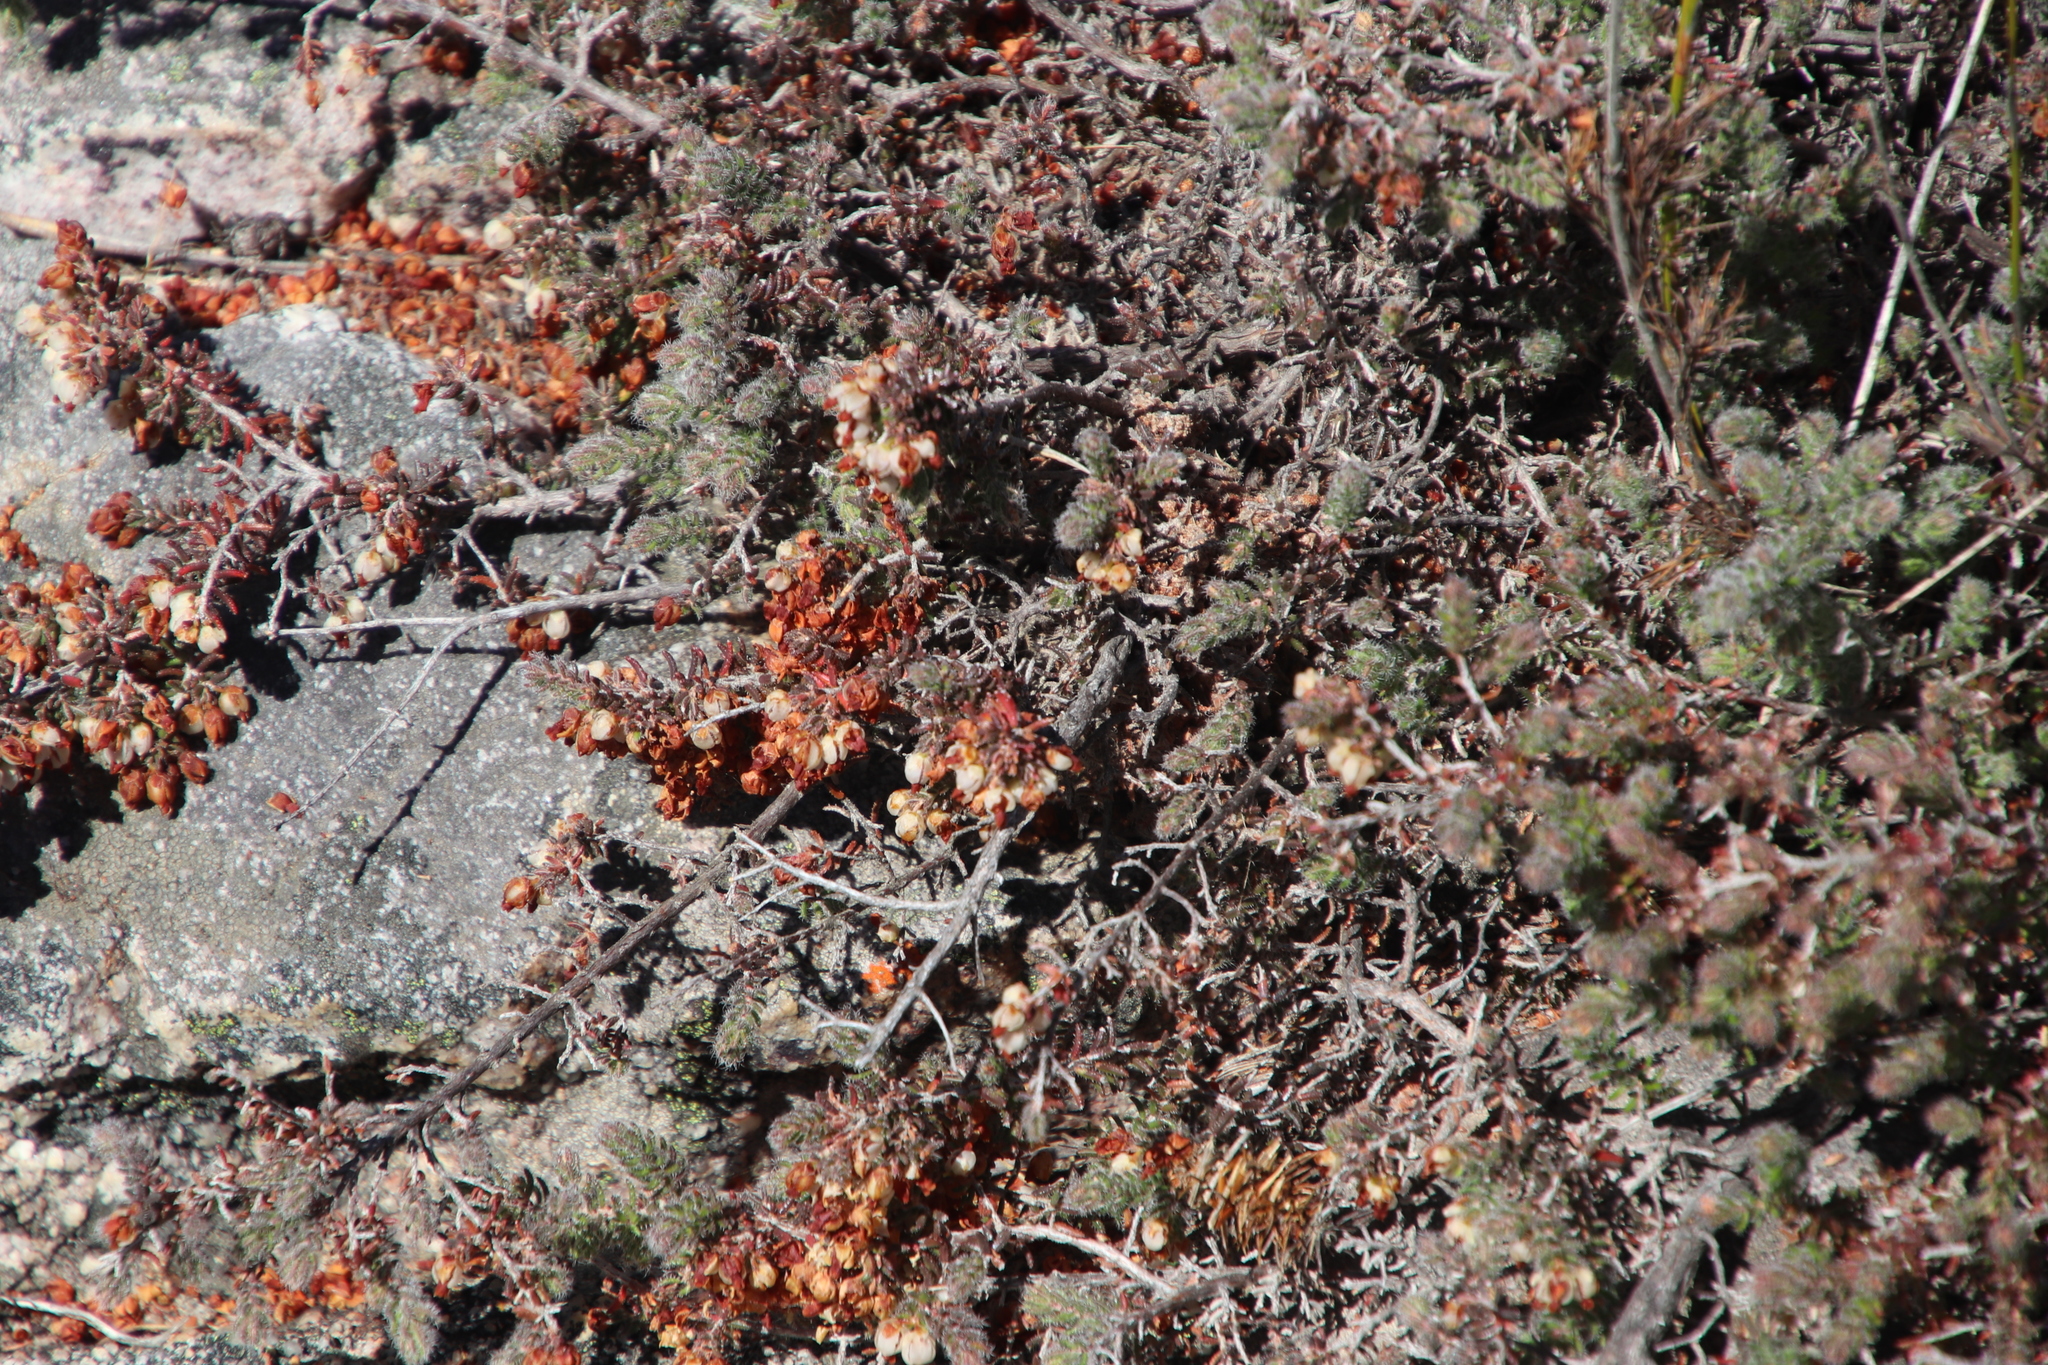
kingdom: Plantae
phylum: Tracheophyta
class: Magnoliopsida
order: Ericales
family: Ericaceae
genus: Erica
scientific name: Erica totta
